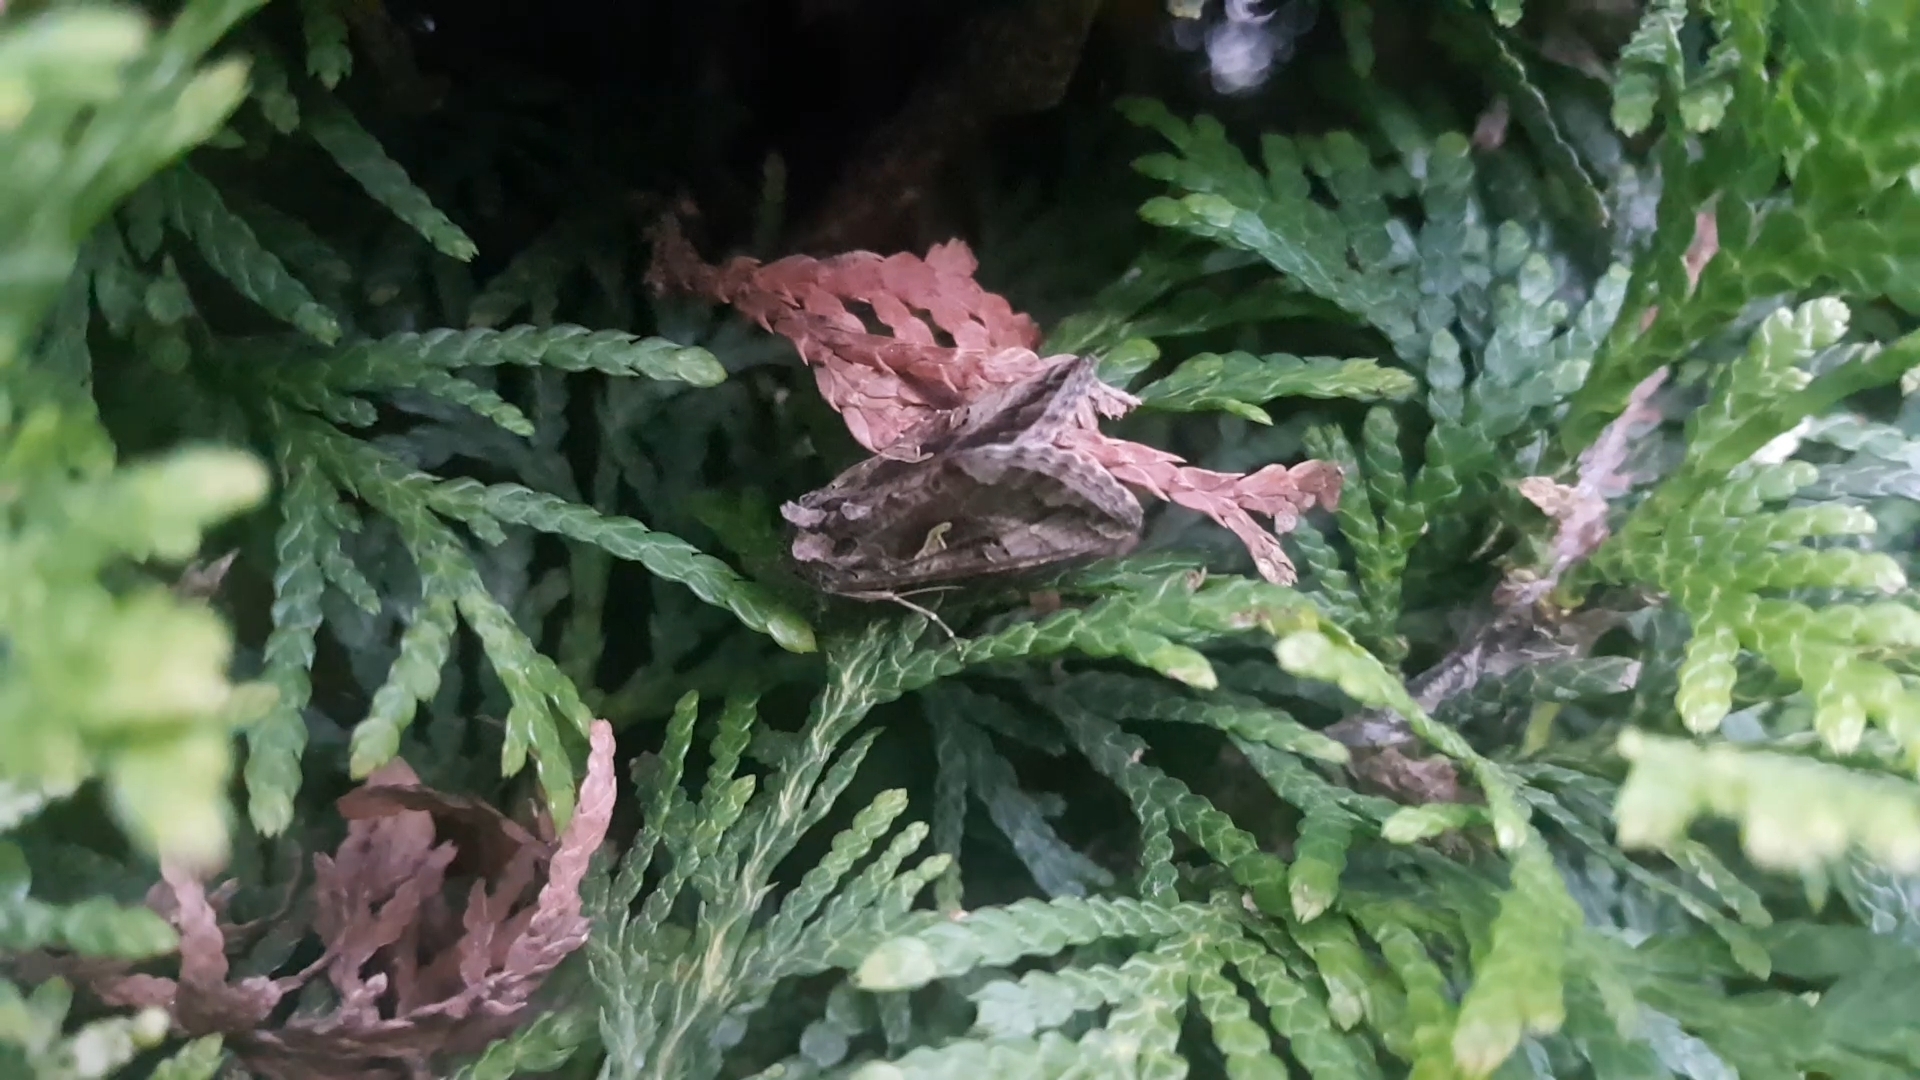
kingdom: Animalia
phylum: Arthropoda
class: Insecta
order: Lepidoptera
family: Noctuidae
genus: Autographa
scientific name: Autographa gamma
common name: Silver y
